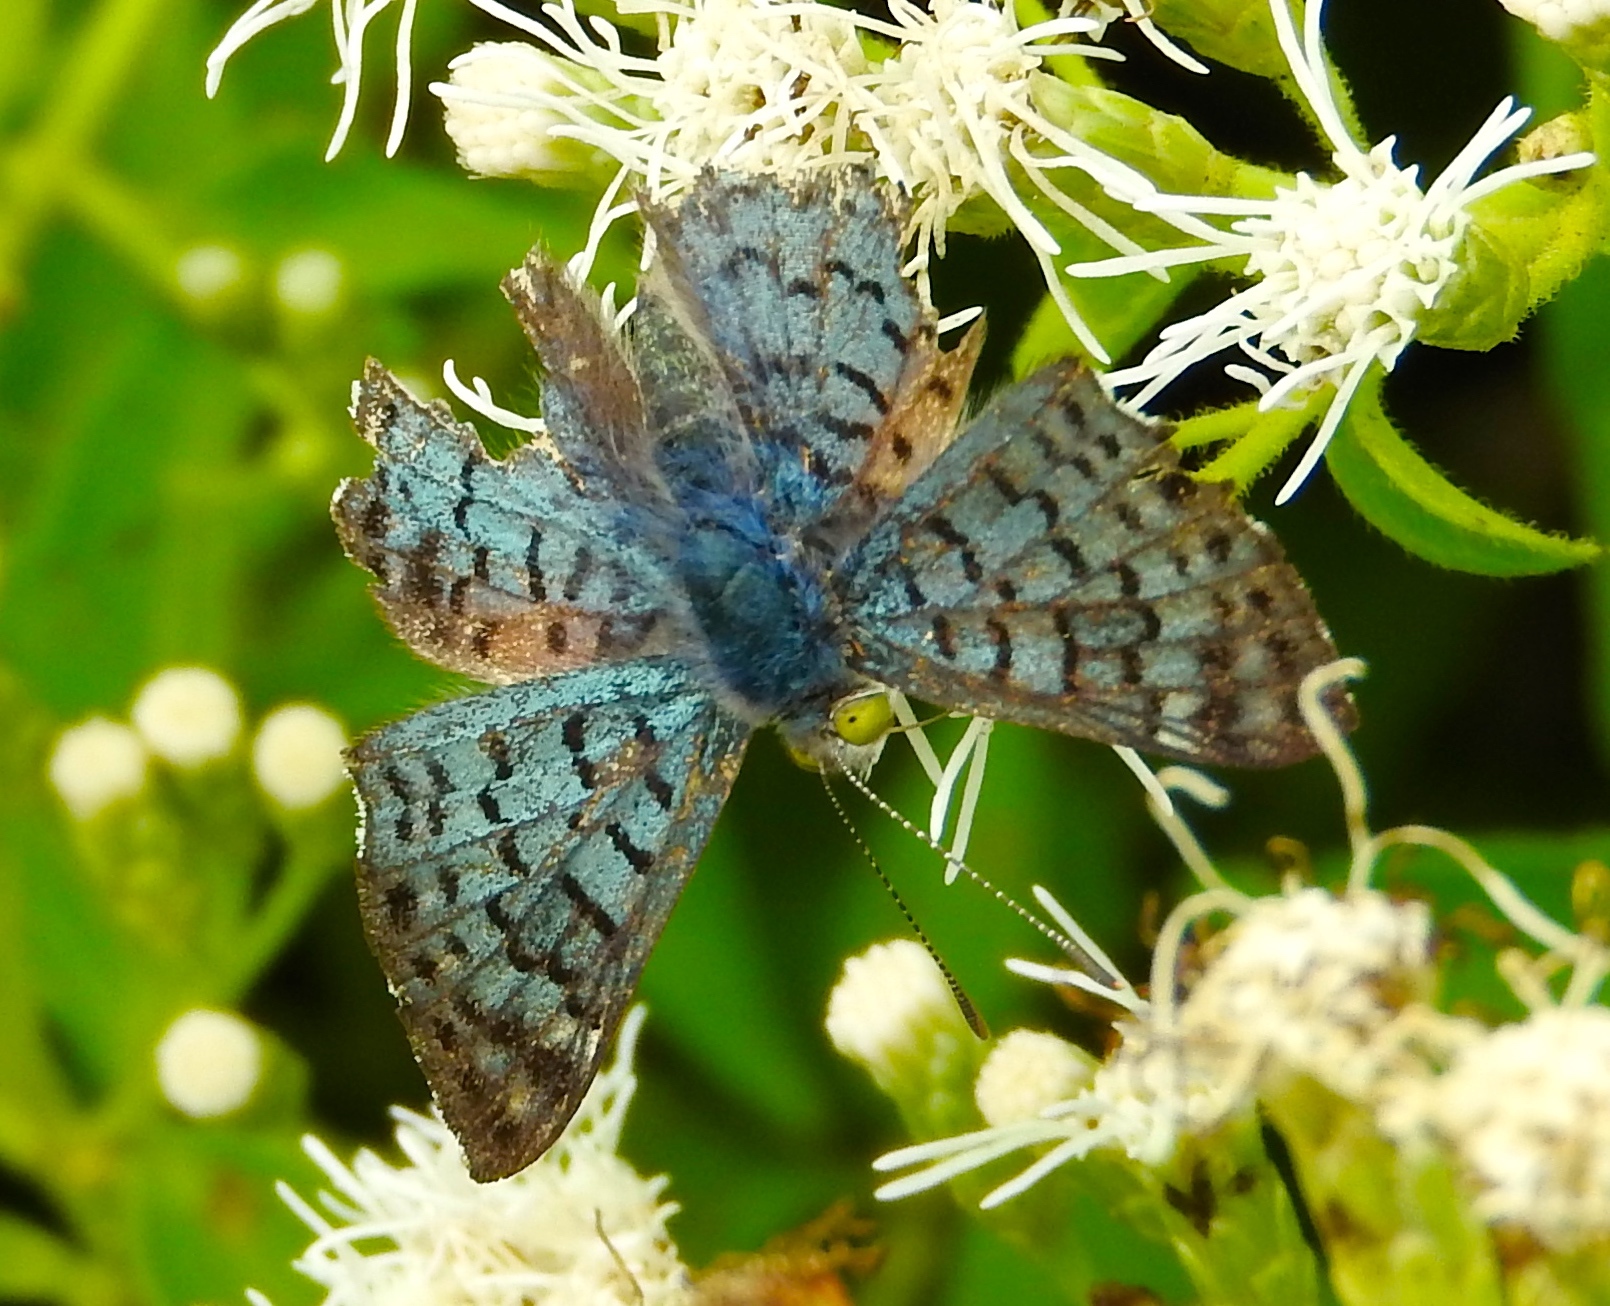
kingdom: Animalia
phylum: Arthropoda
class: Insecta
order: Lepidoptera
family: Riodinidae
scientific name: Riodinidae
